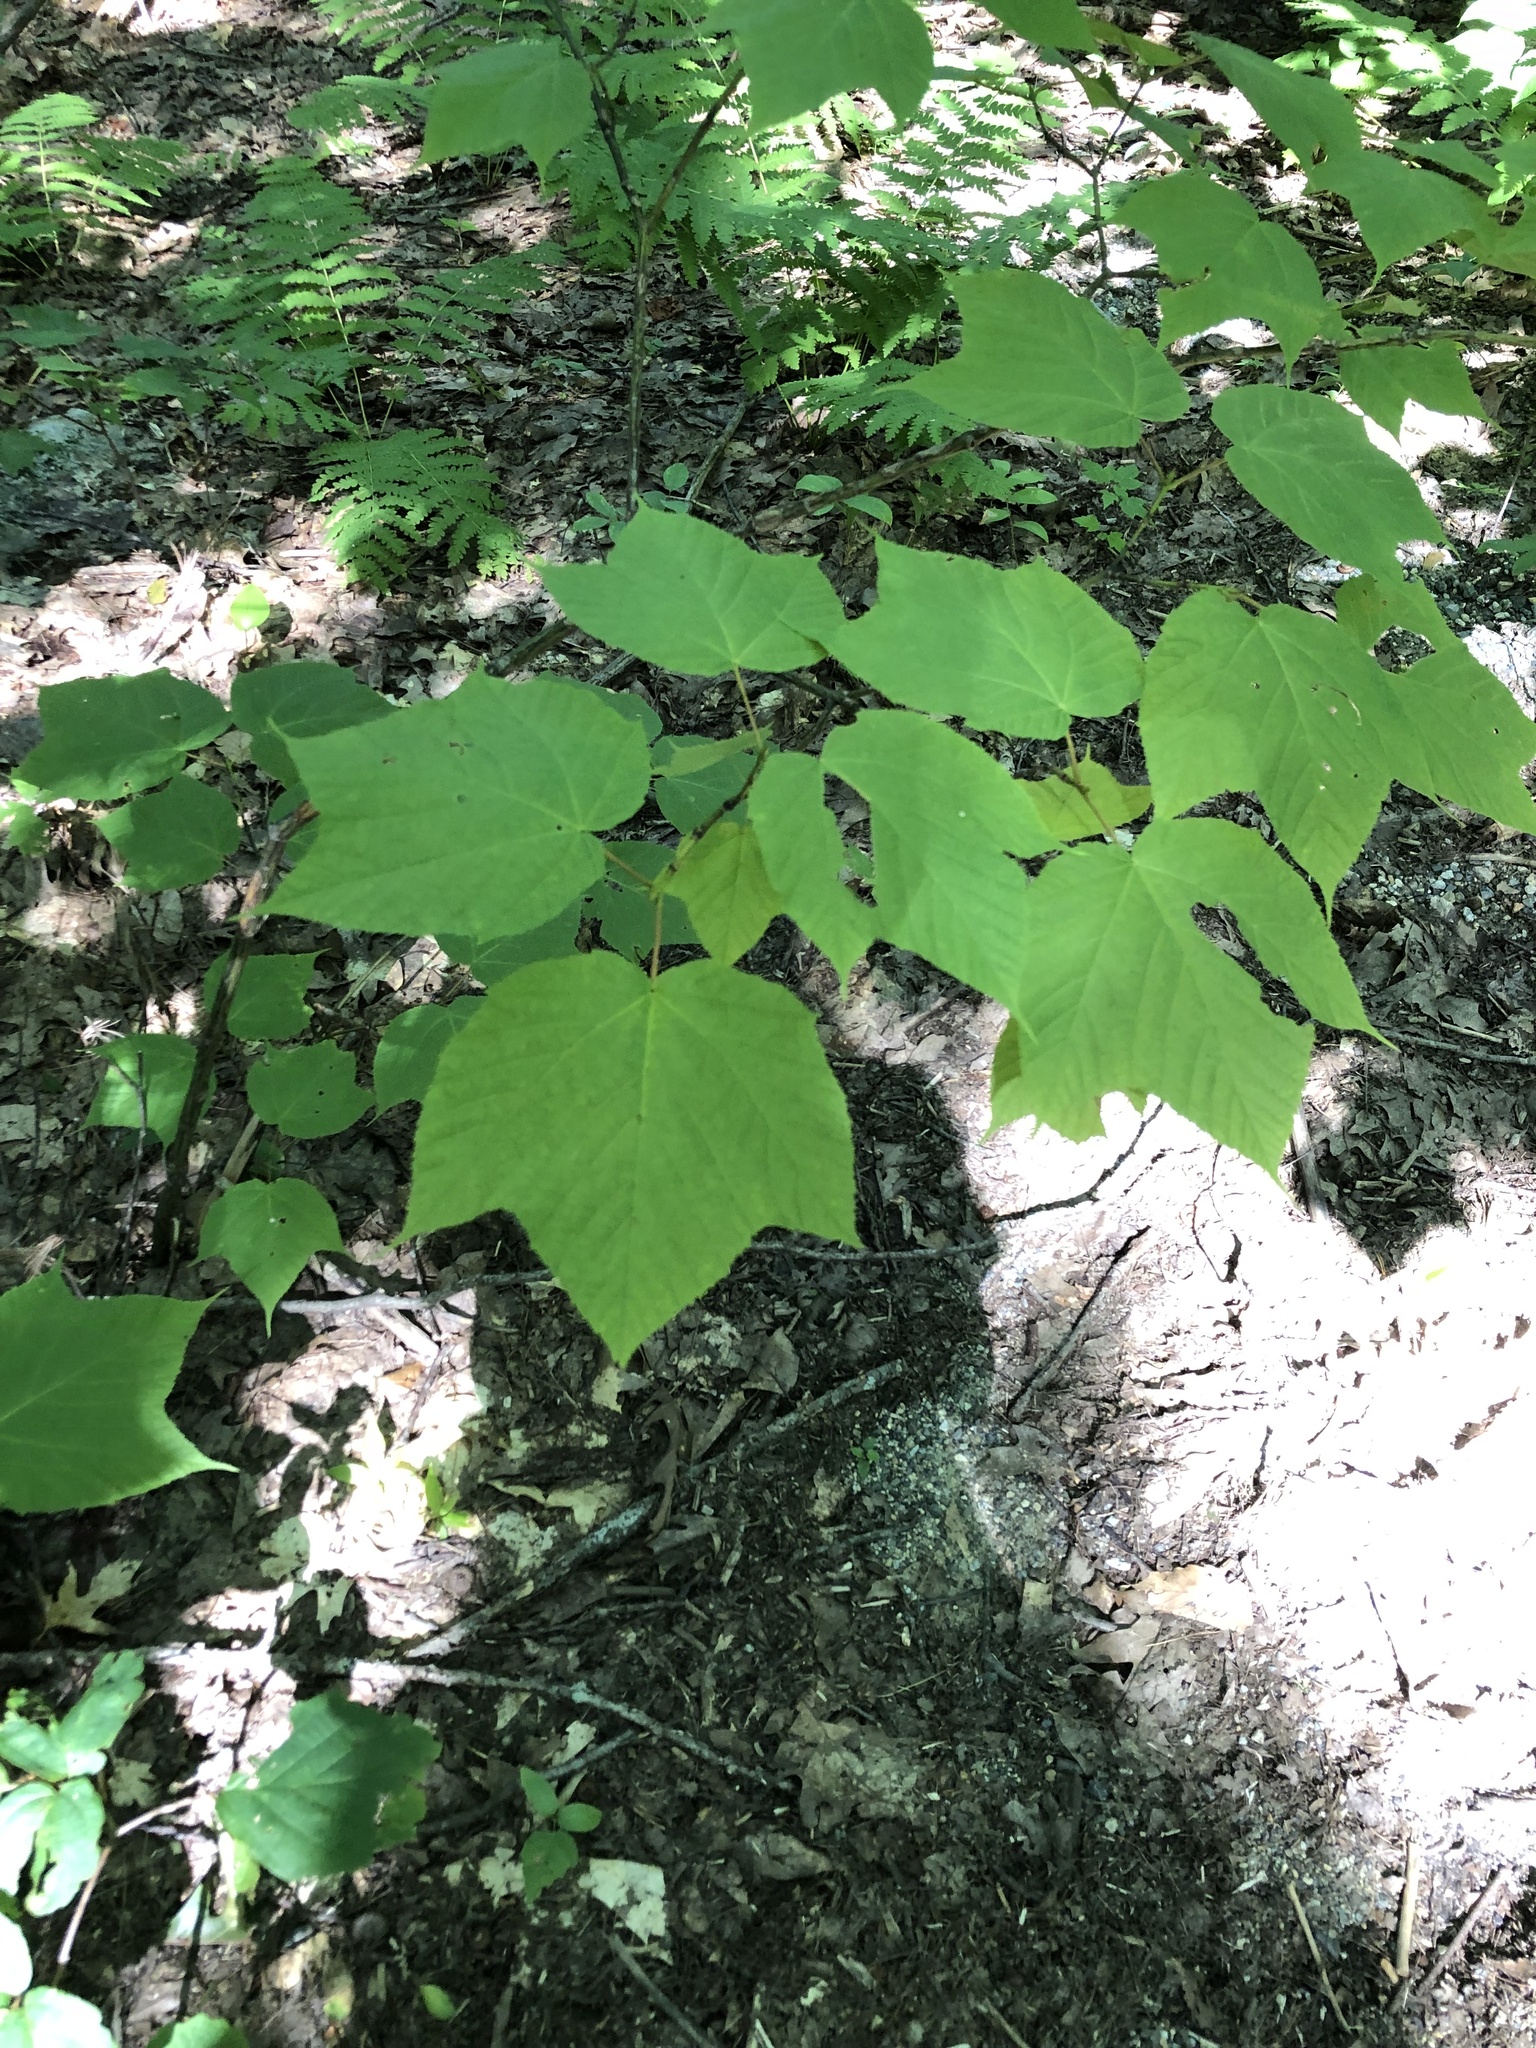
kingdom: Plantae
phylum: Tracheophyta
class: Magnoliopsida
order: Sapindales
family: Sapindaceae
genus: Acer
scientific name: Acer pensylvanicum
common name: Moosewood
